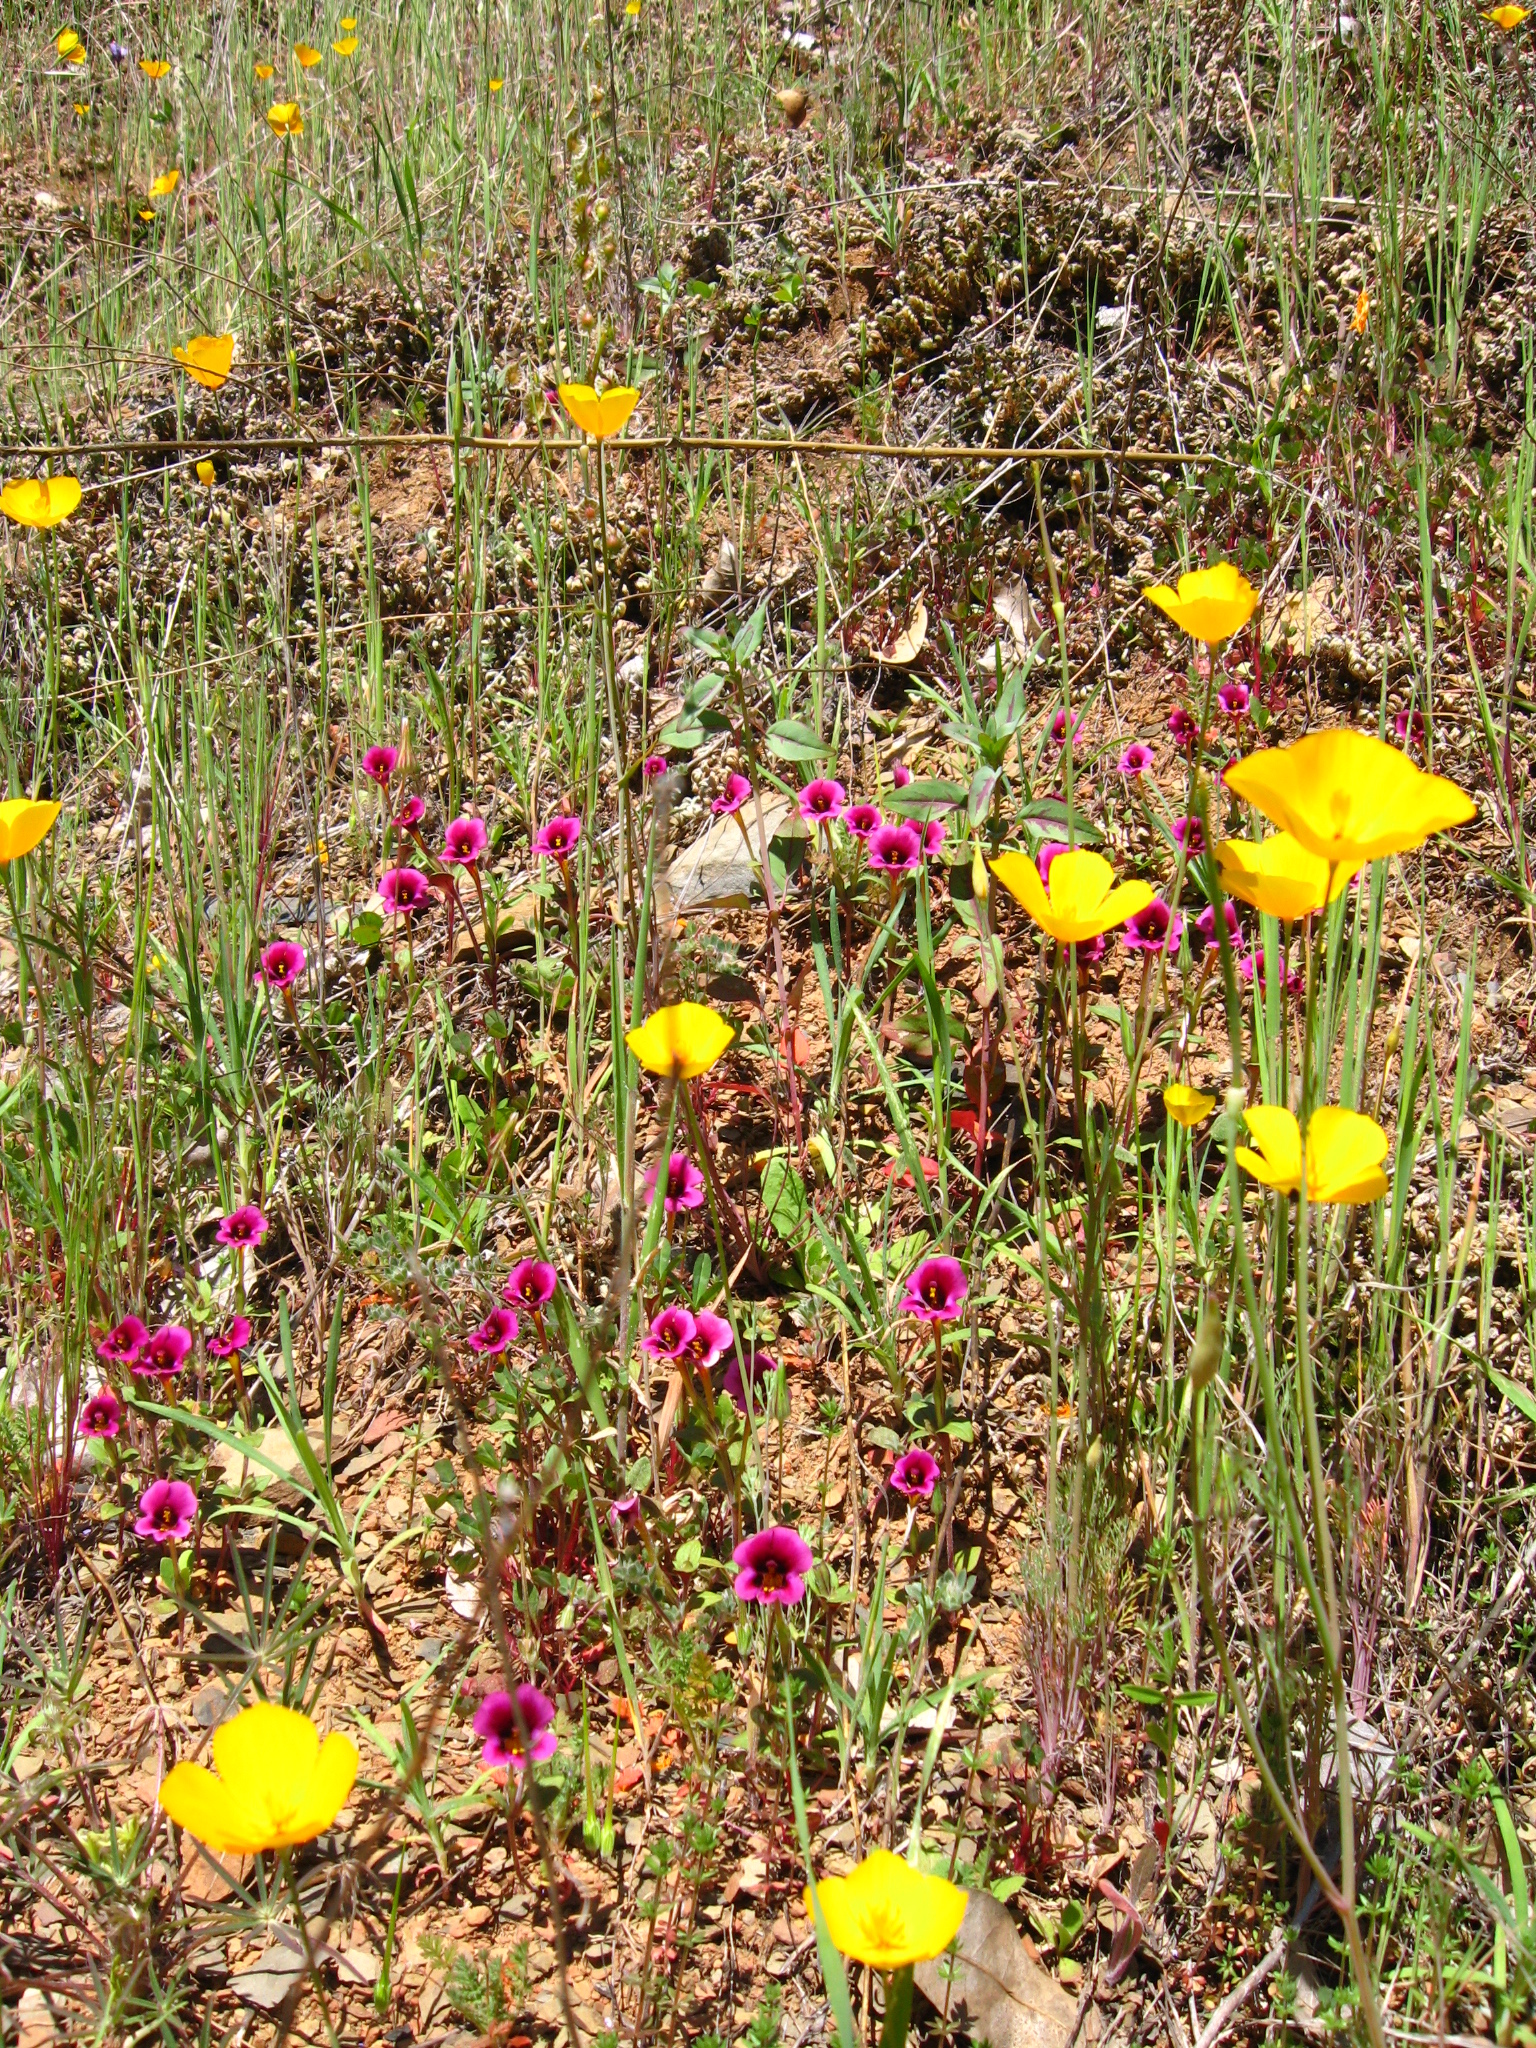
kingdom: Plantae
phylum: Tracheophyta
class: Magnoliopsida
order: Lamiales
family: Phrymaceae
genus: Diplacus
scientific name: Diplacus kelloggii
